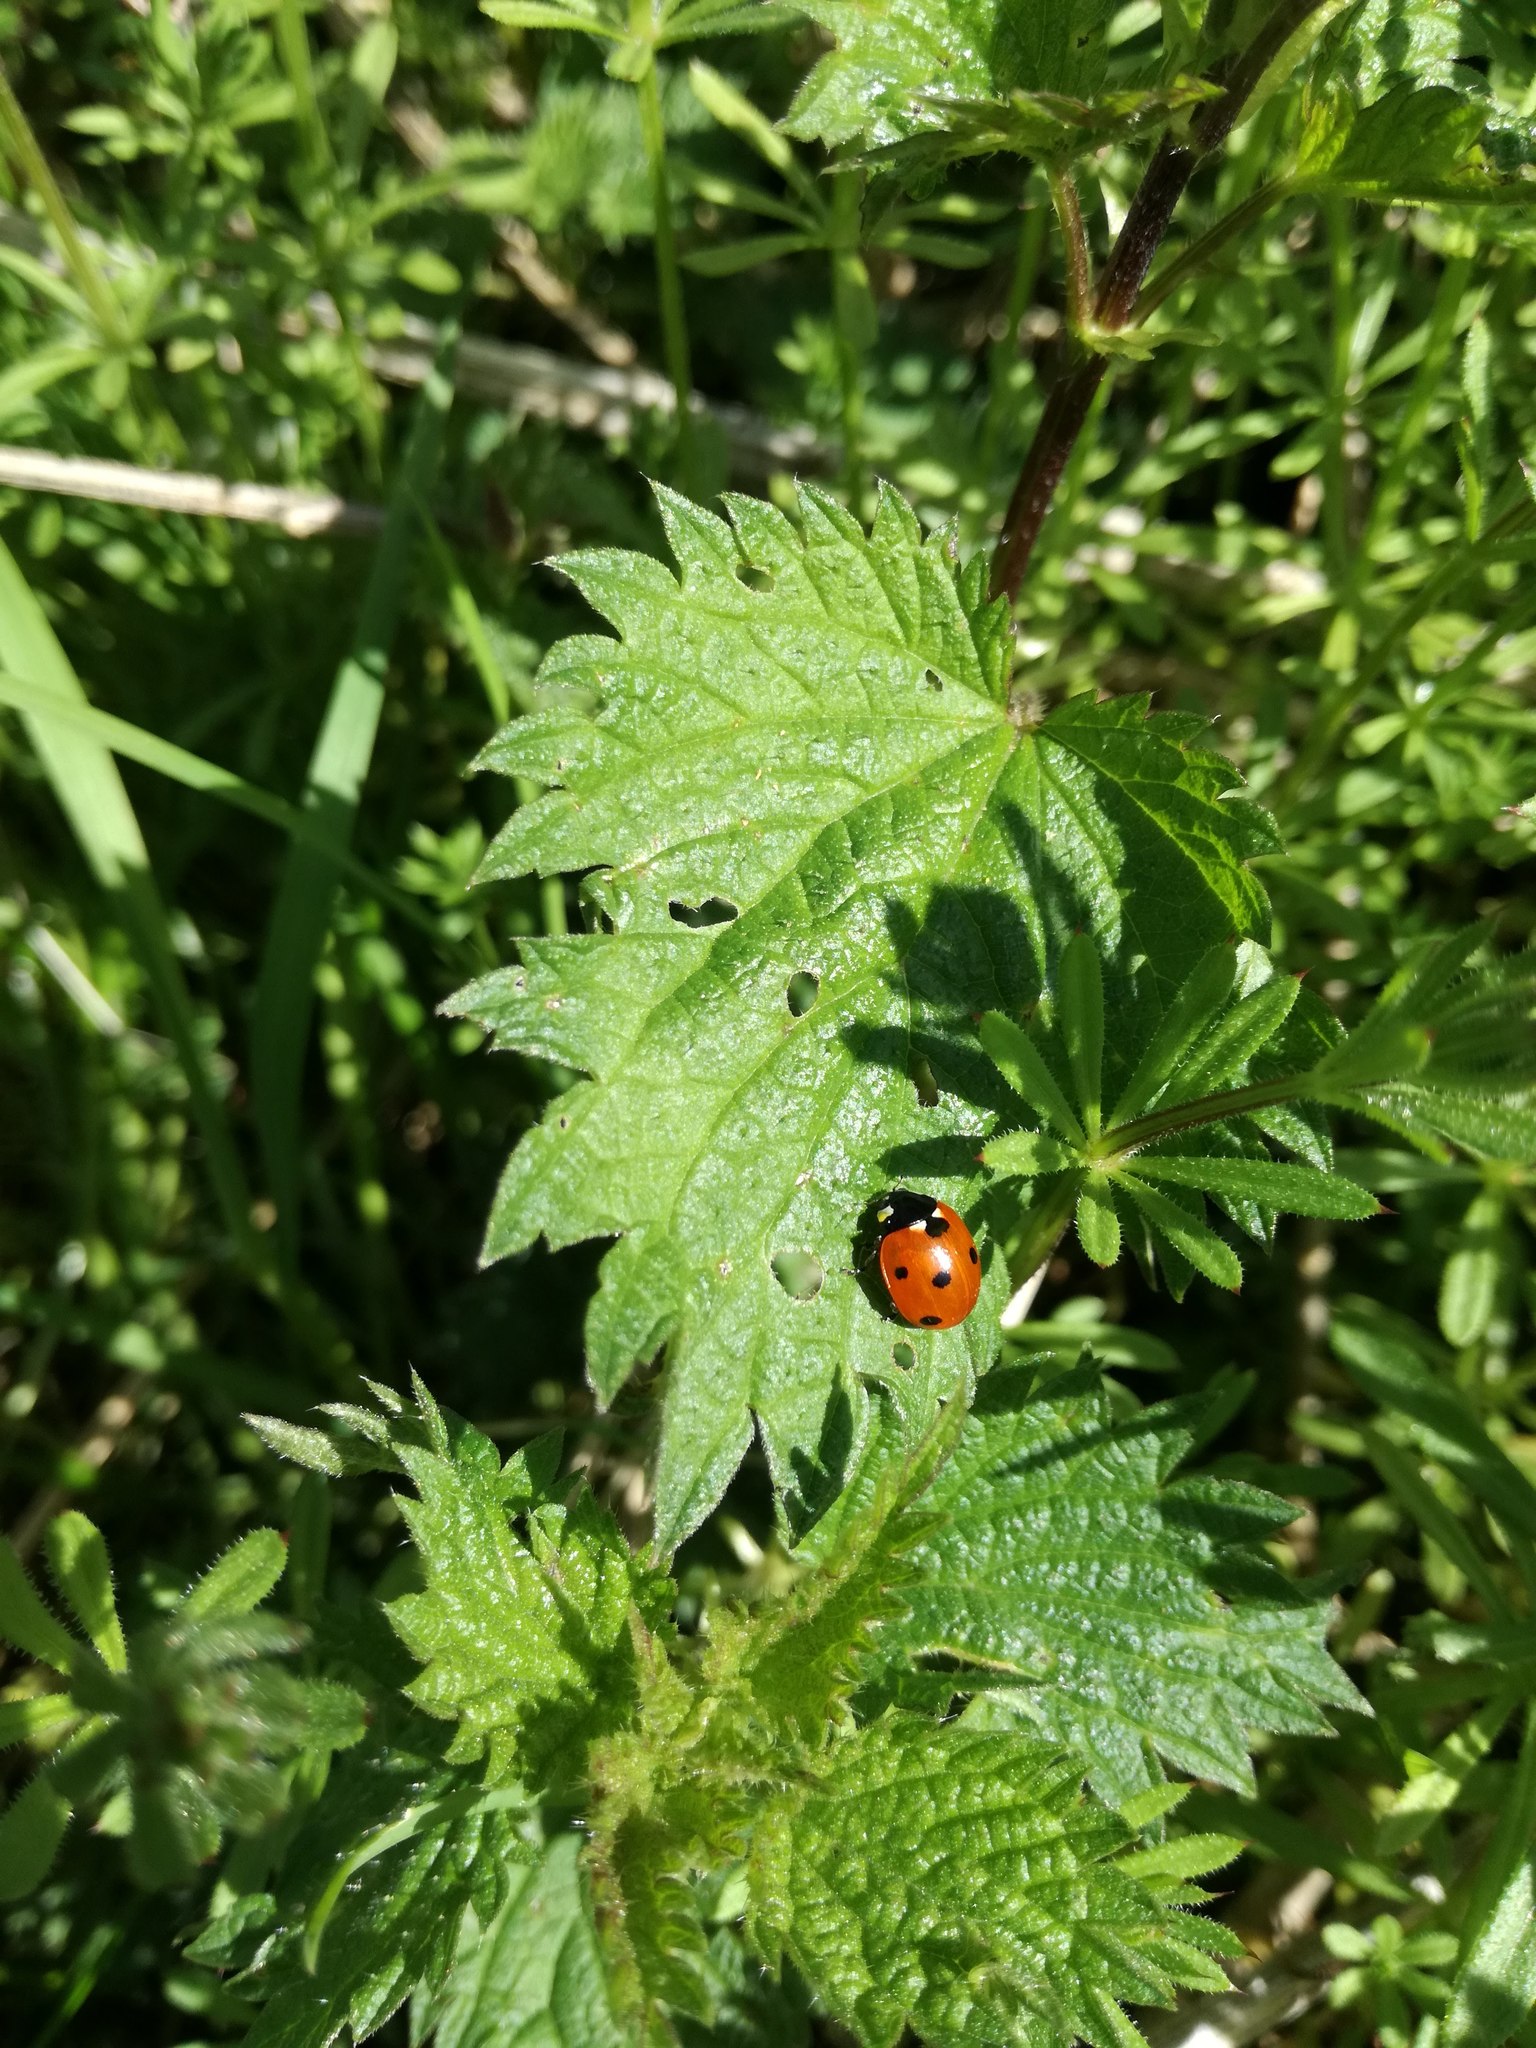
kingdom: Animalia
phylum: Arthropoda
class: Insecta
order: Coleoptera
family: Coccinellidae
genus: Coccinella
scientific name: Coccinella septempunctata
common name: Sevenspotted lady beetle
